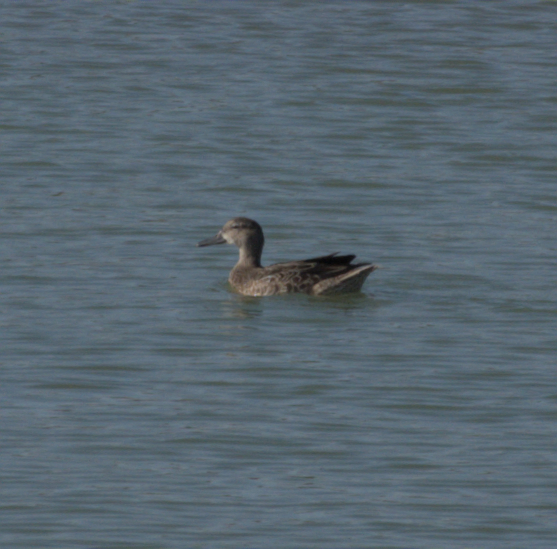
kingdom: Animalia
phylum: Chordata
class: Aves
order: Anseriformes
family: Anatidae
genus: Spatula
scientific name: Spatula discors
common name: Blue-winged teal
